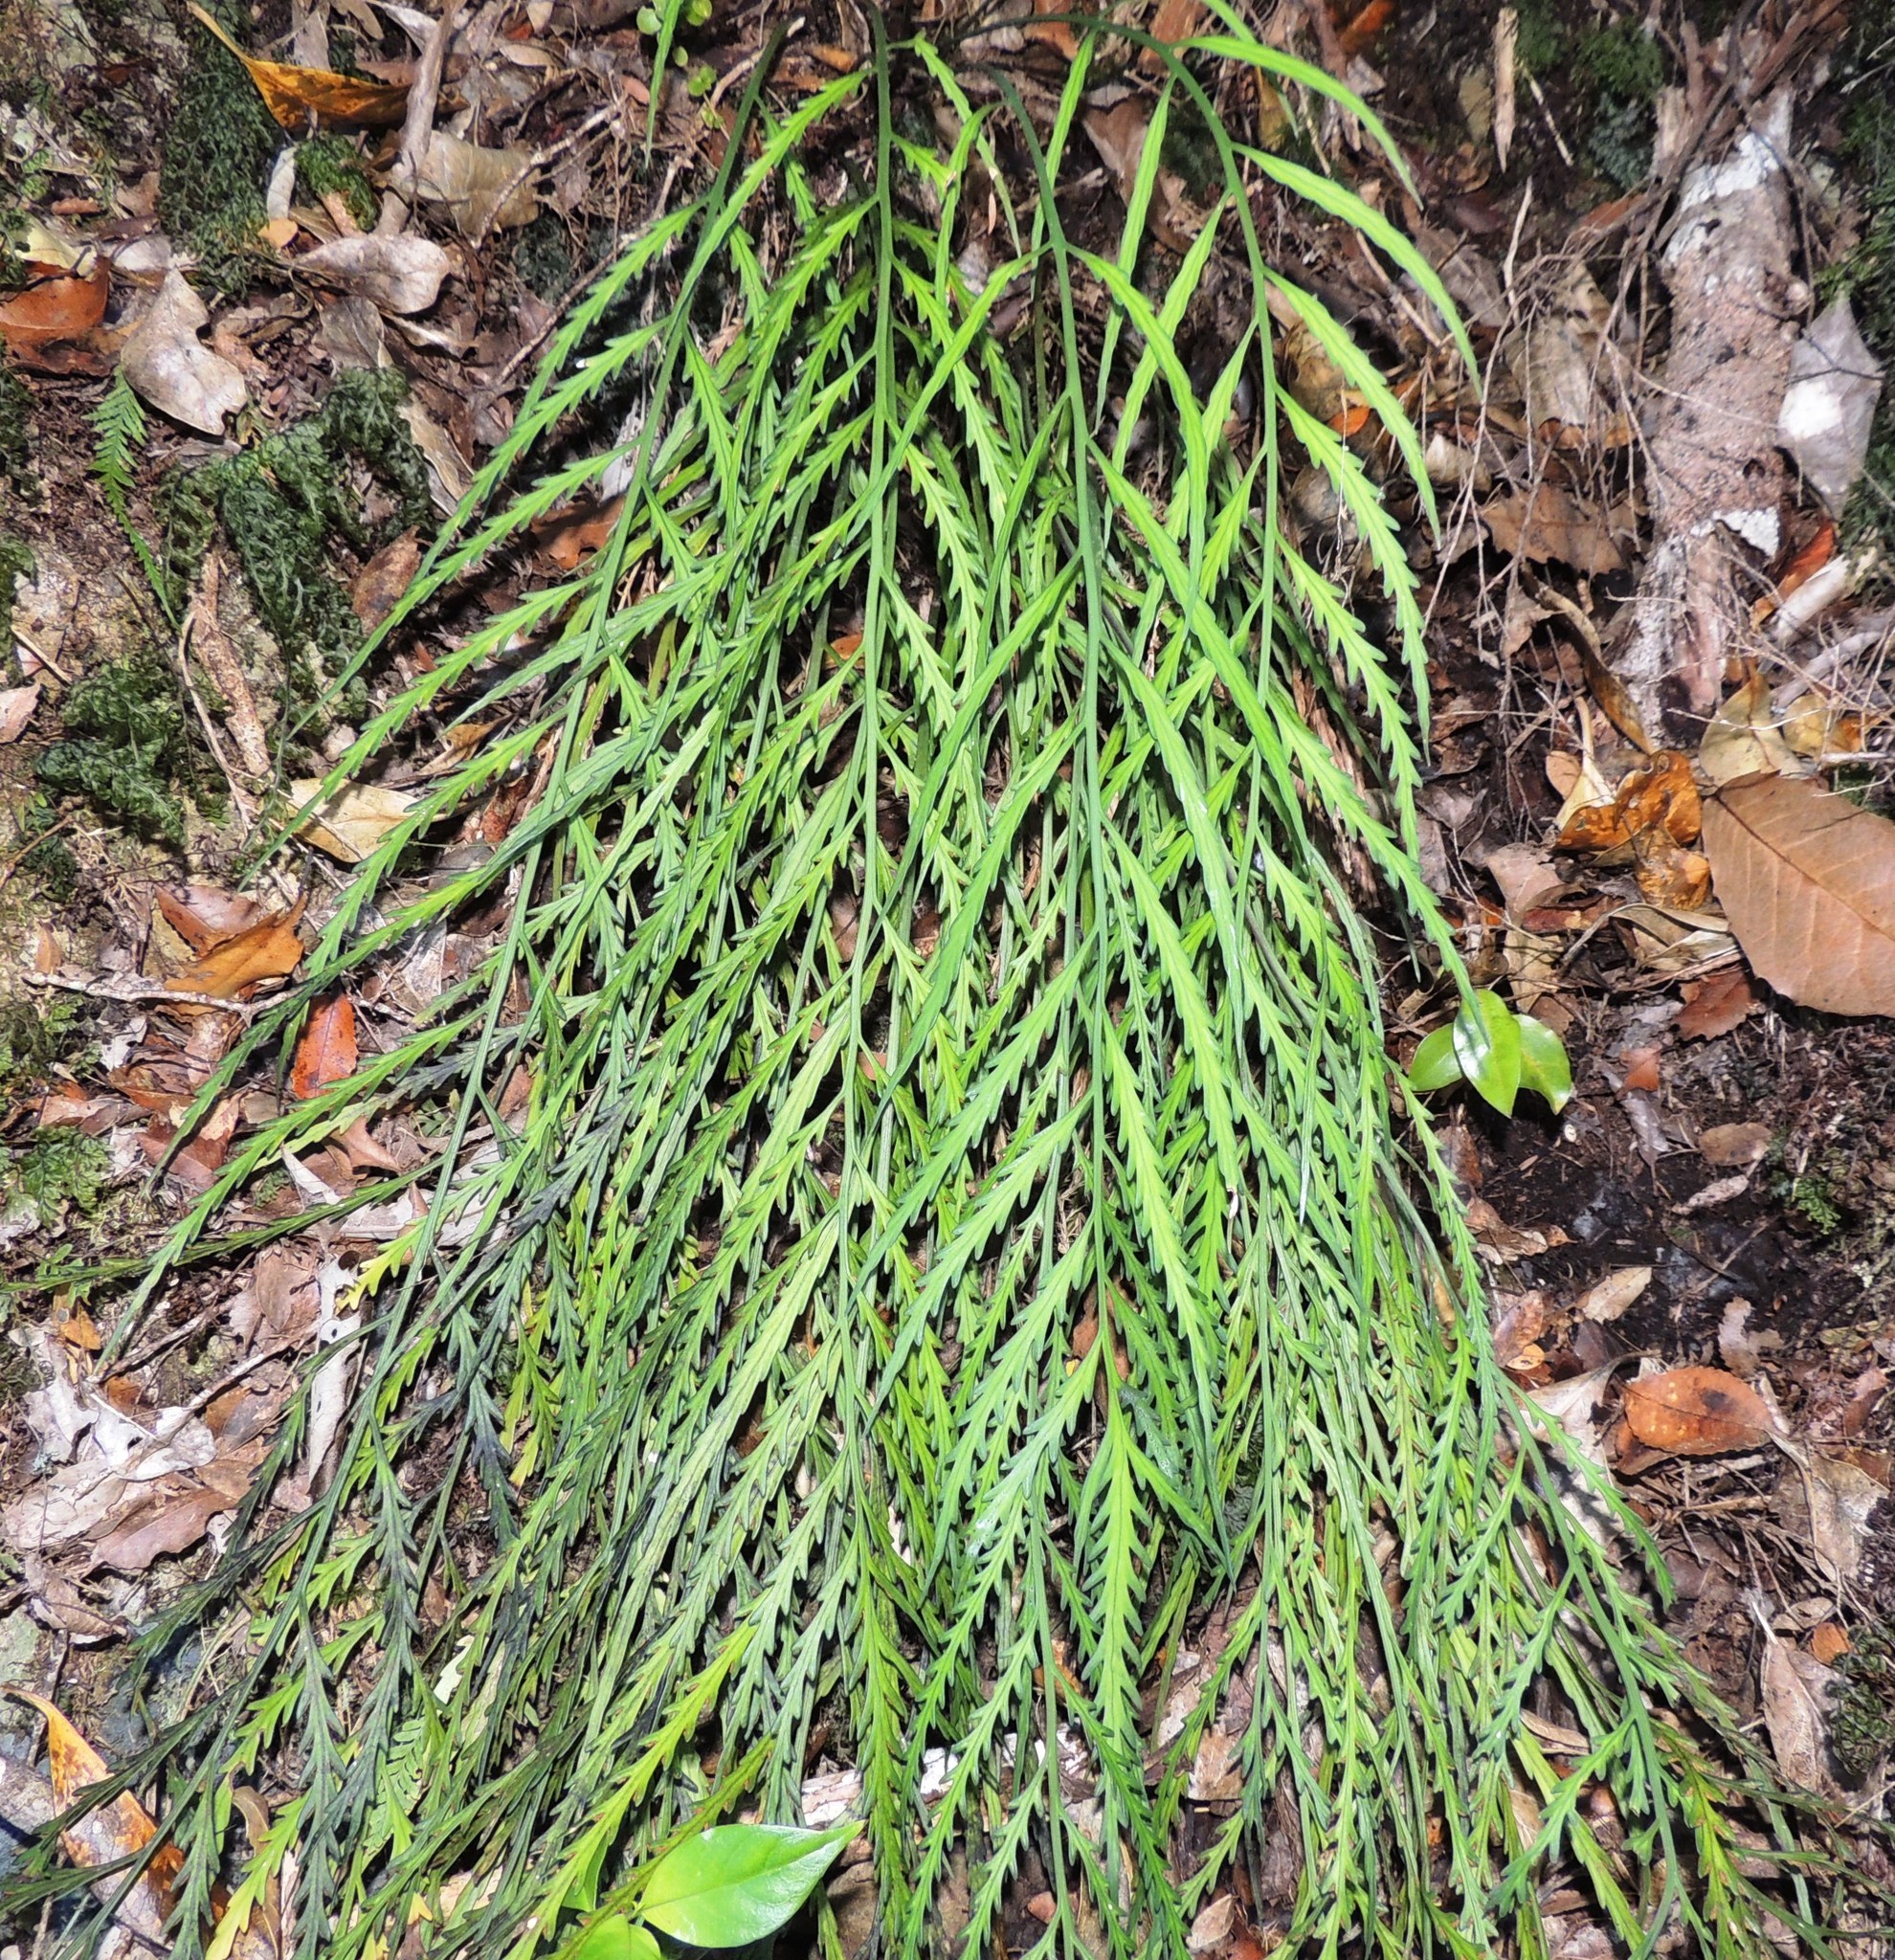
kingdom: Plantae
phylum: Tracheophyta
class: Polypodiopsida
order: Polypodiales
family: Aspleniaceae
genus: Asplenium
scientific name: Asplenium flaccidum
